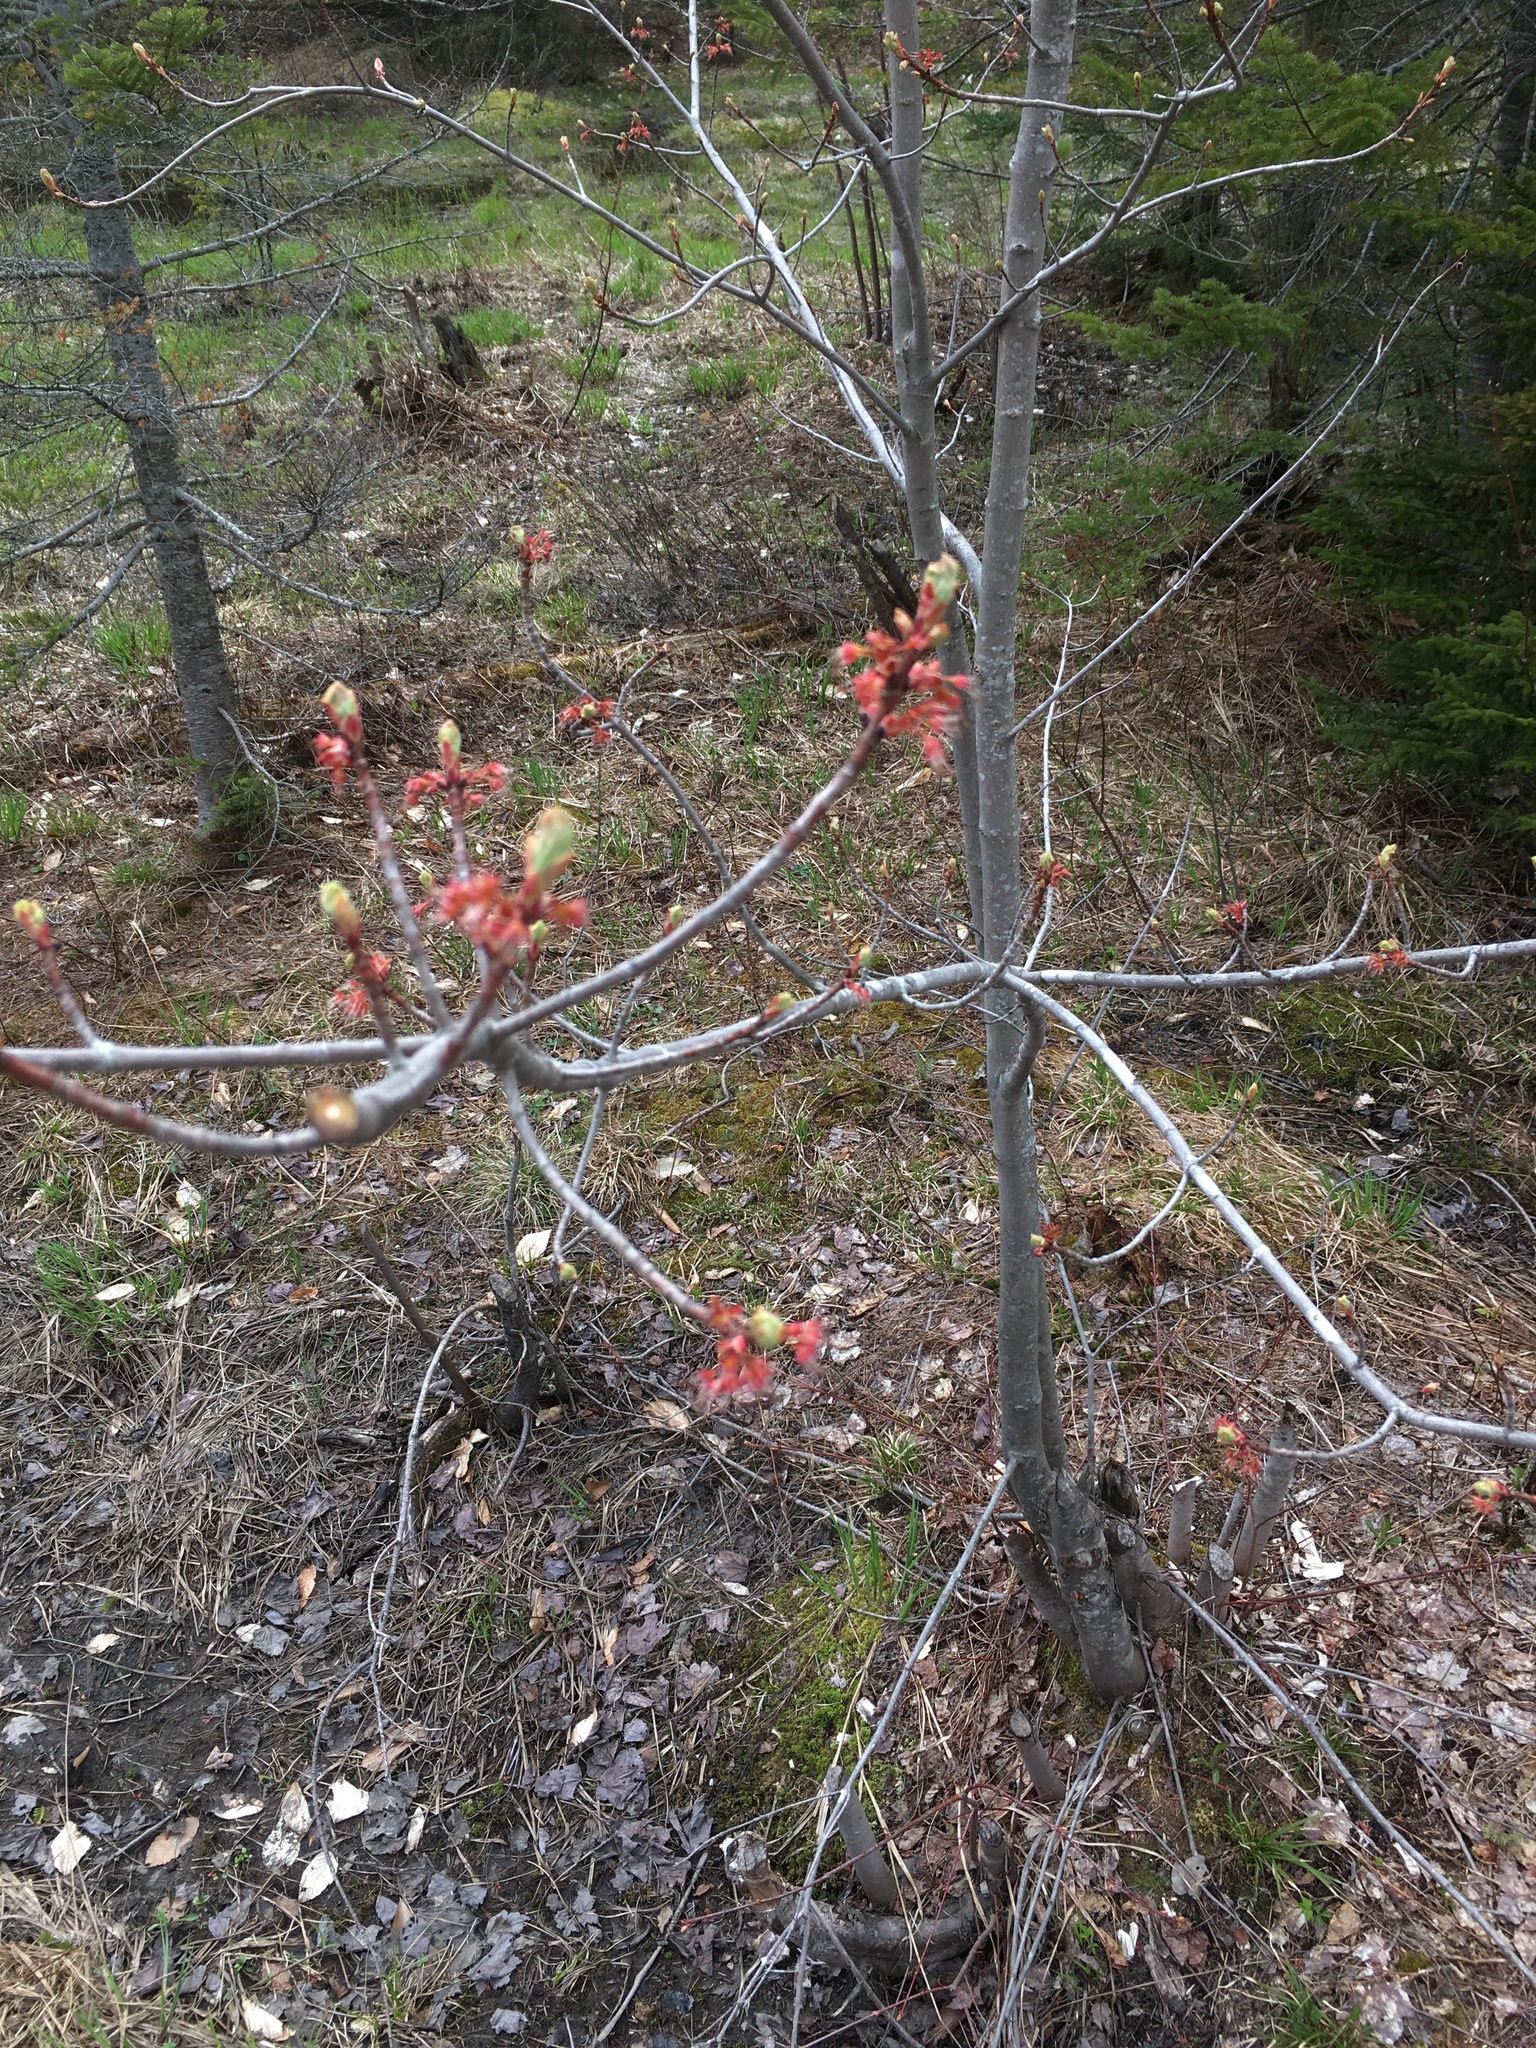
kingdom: Plantae
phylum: Tracheophyta
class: Magnoliopsida
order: Sapindales
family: Sapindaceae
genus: Acer
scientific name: Acer rubrum
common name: Red maple
